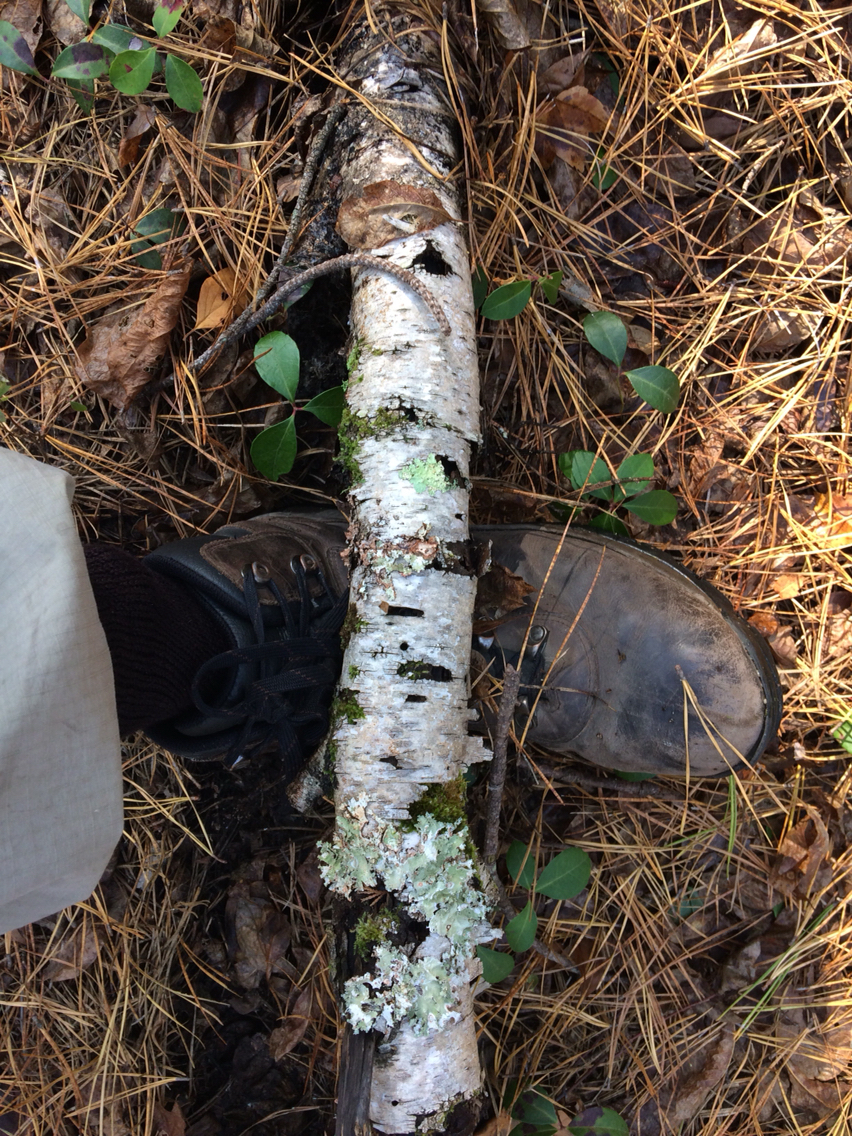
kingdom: Plantae
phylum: Tracheophyta
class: Magnoliopsida
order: Fagales
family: Betulaceae
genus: Betula
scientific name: Betula populifolia
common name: Fire birch
